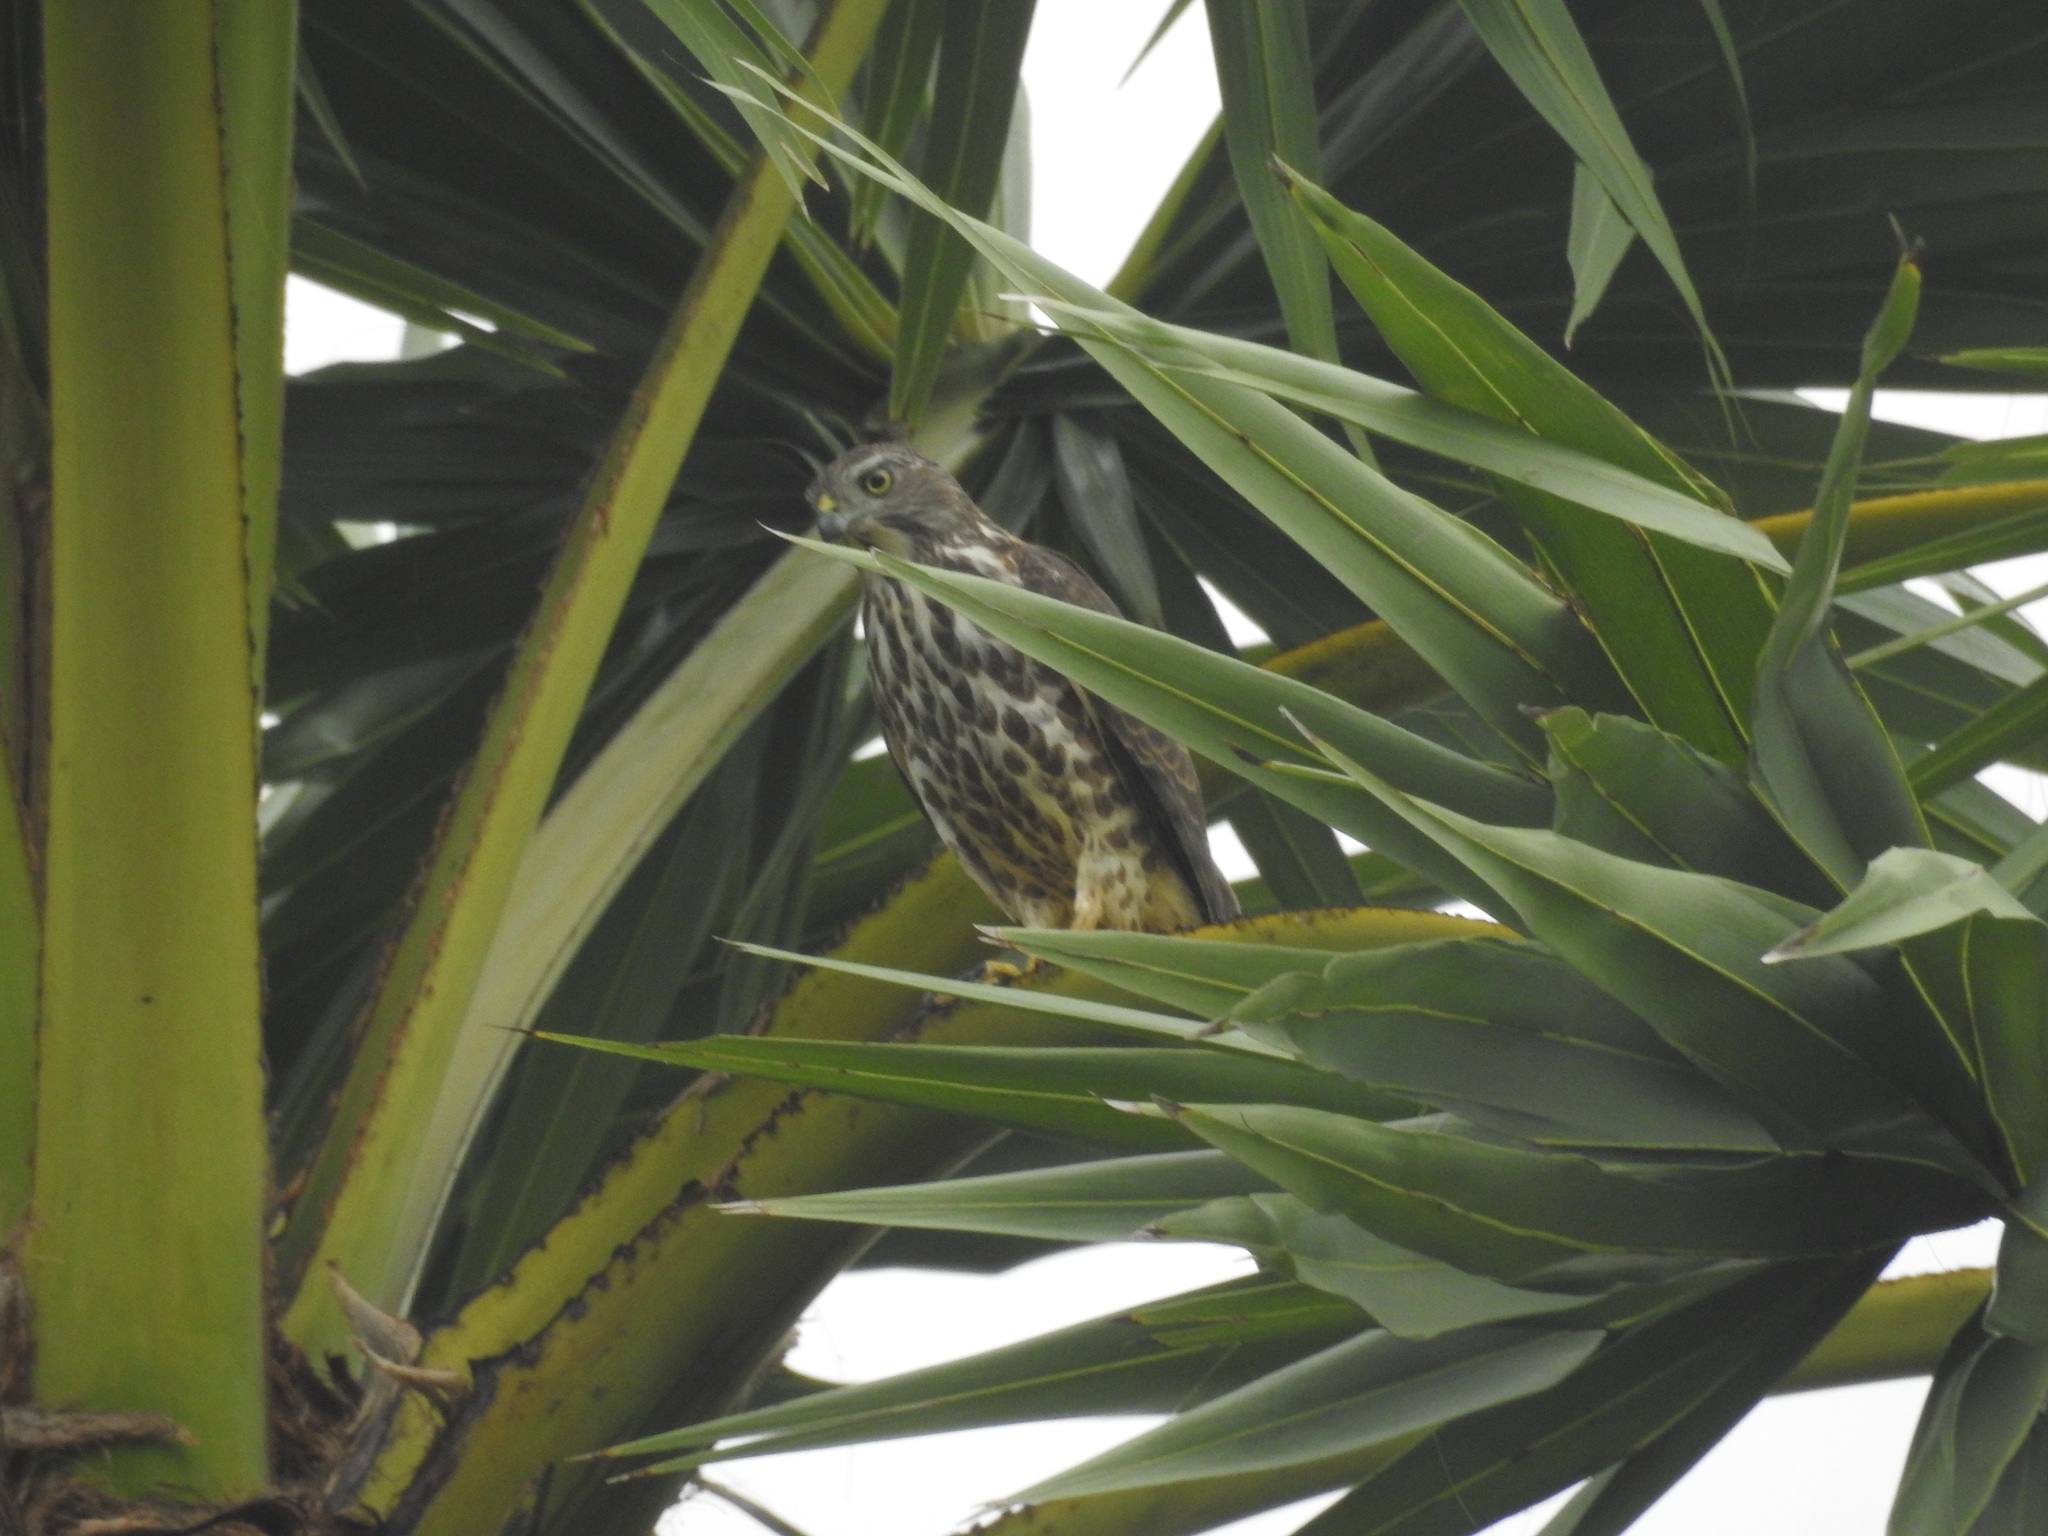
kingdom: Animalia
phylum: Chordata
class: Aves
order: Accipitriformes
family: Accipitridae
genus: Accipiter
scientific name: Accipiter badius
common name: Shikra
